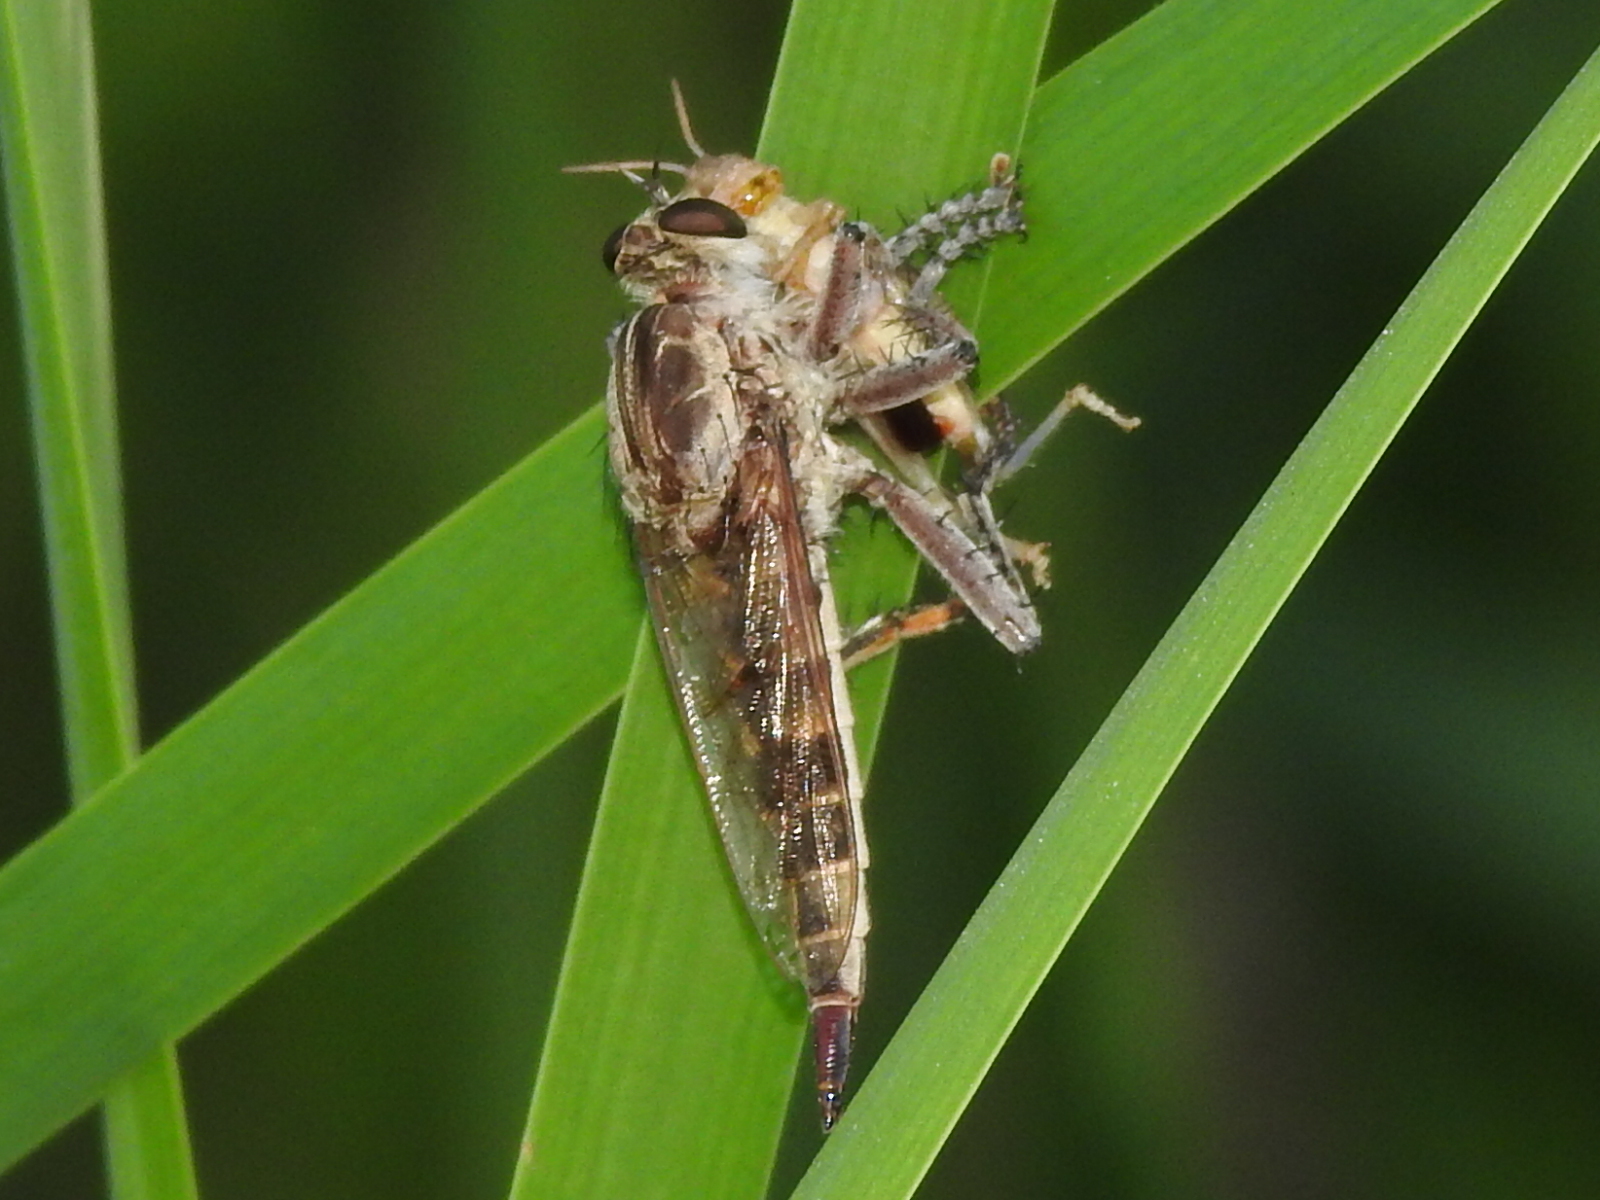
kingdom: Animalia
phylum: Arthropoda
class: Insecta
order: Diptera
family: Asilidae
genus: Triorla
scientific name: Triorla interrupta
